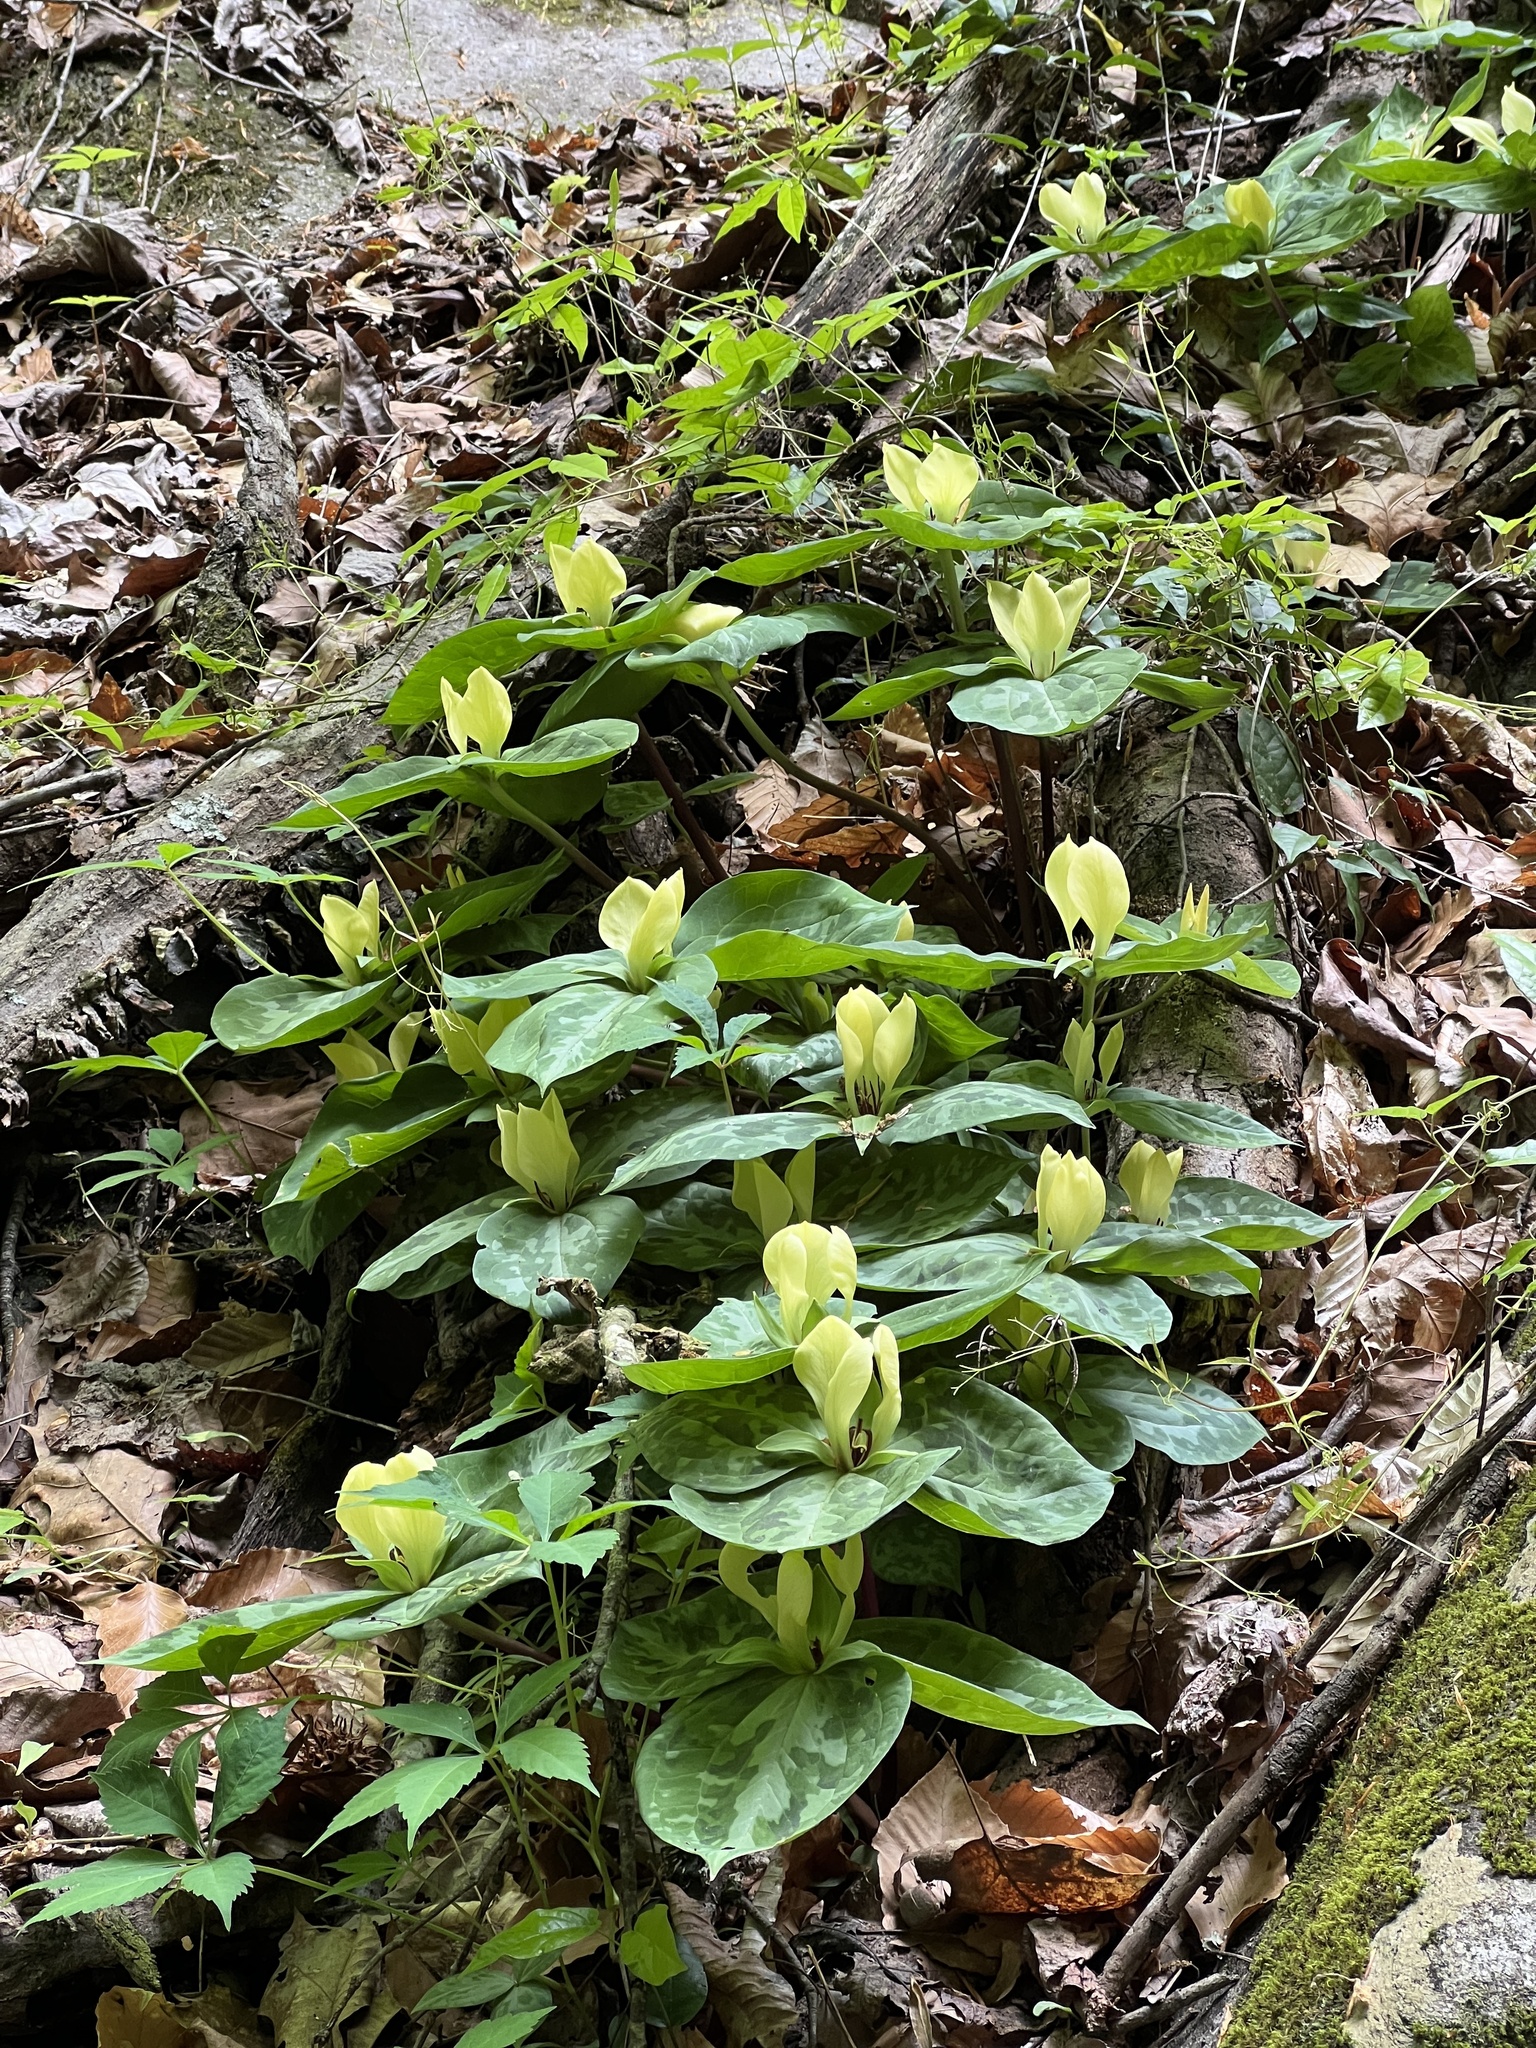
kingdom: Plantae
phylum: Tracheophyta
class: Liliopsida
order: Liliales
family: Melanthiaceae
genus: Trillium
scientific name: Trillium discolor
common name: Faded trillium
